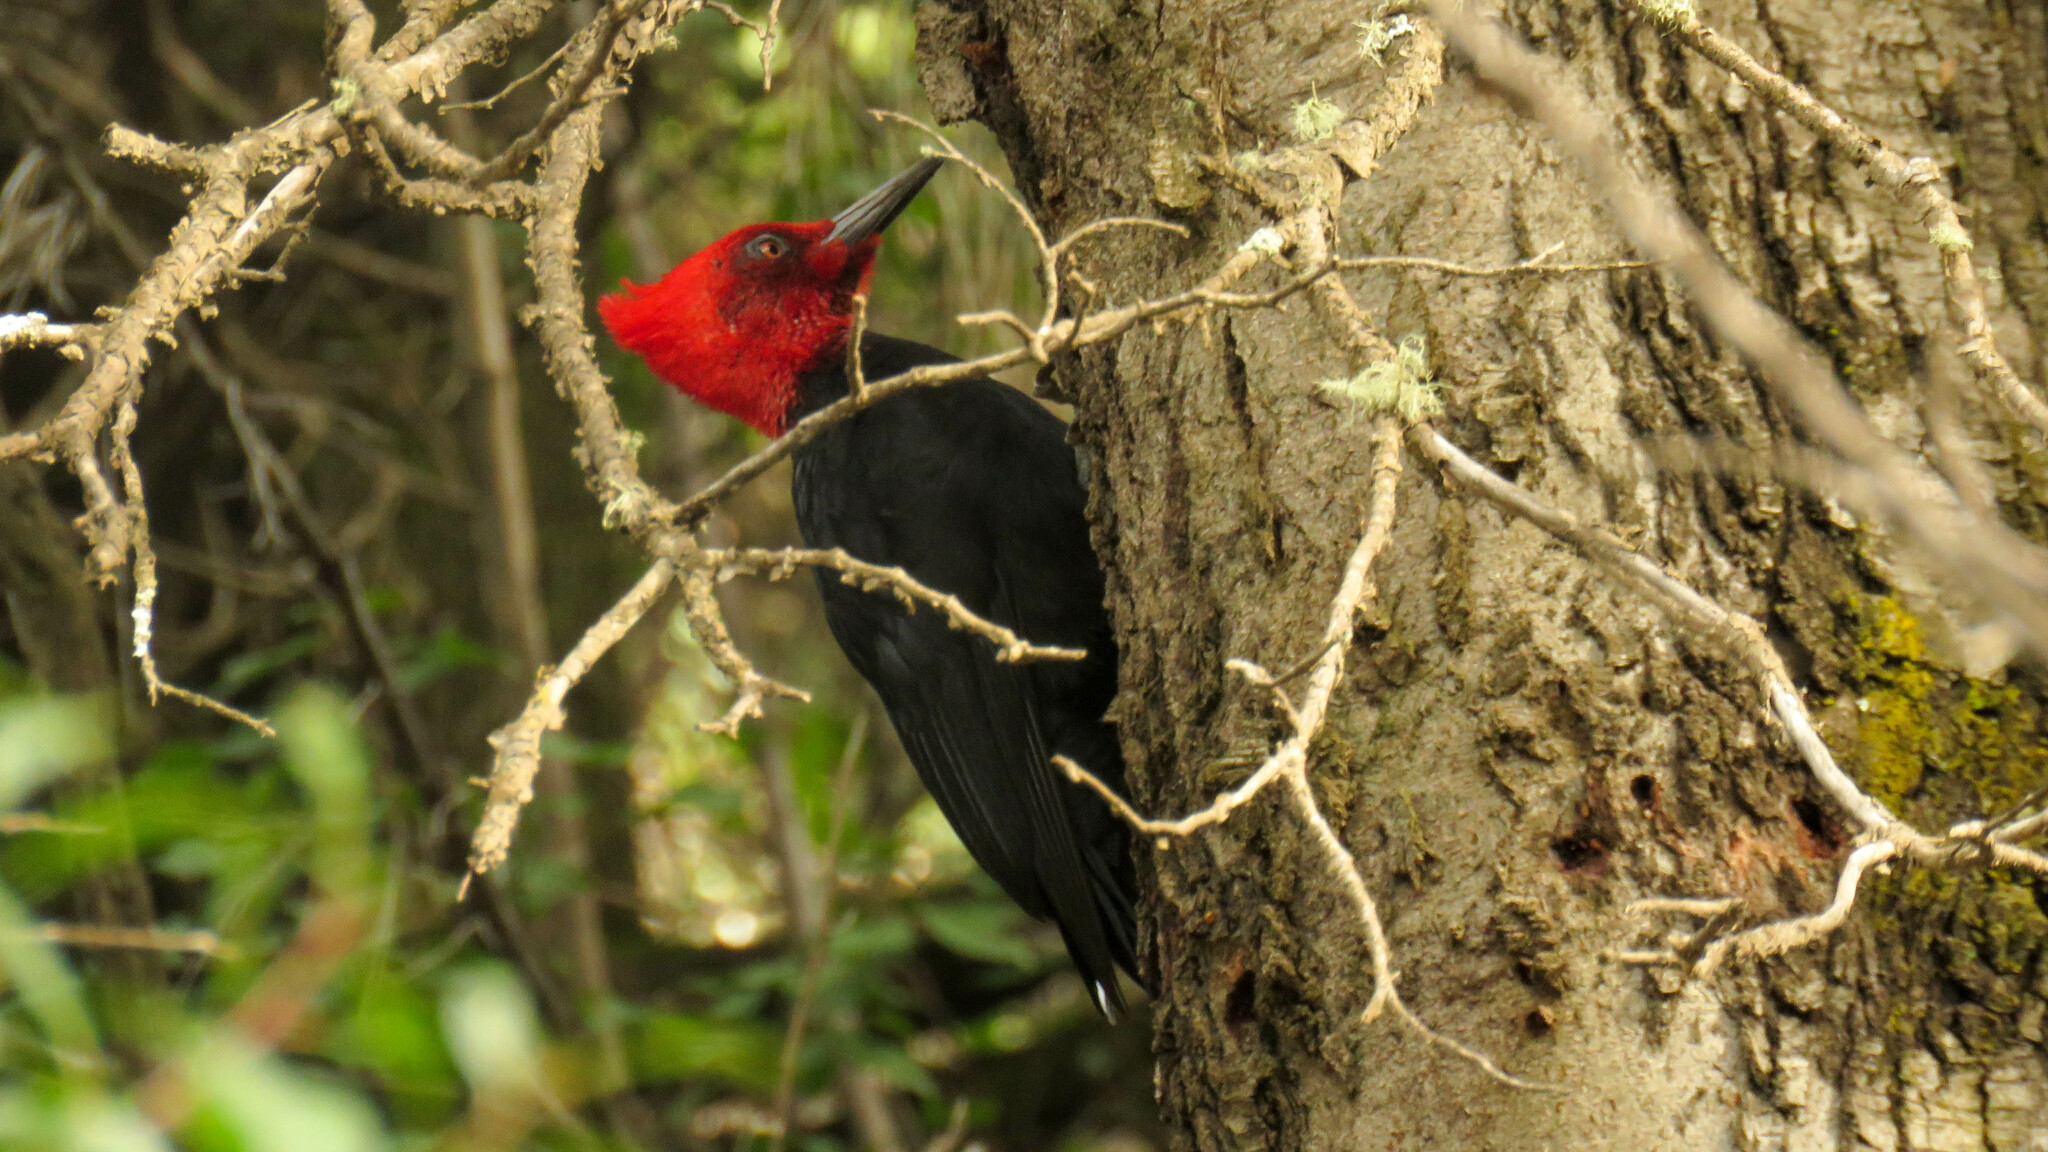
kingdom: Animalia
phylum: Chordata
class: Aves
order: Piciformes
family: Picidae
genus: Campephilus
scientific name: Campephilus magellanicus
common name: Magellanic woodpecker
